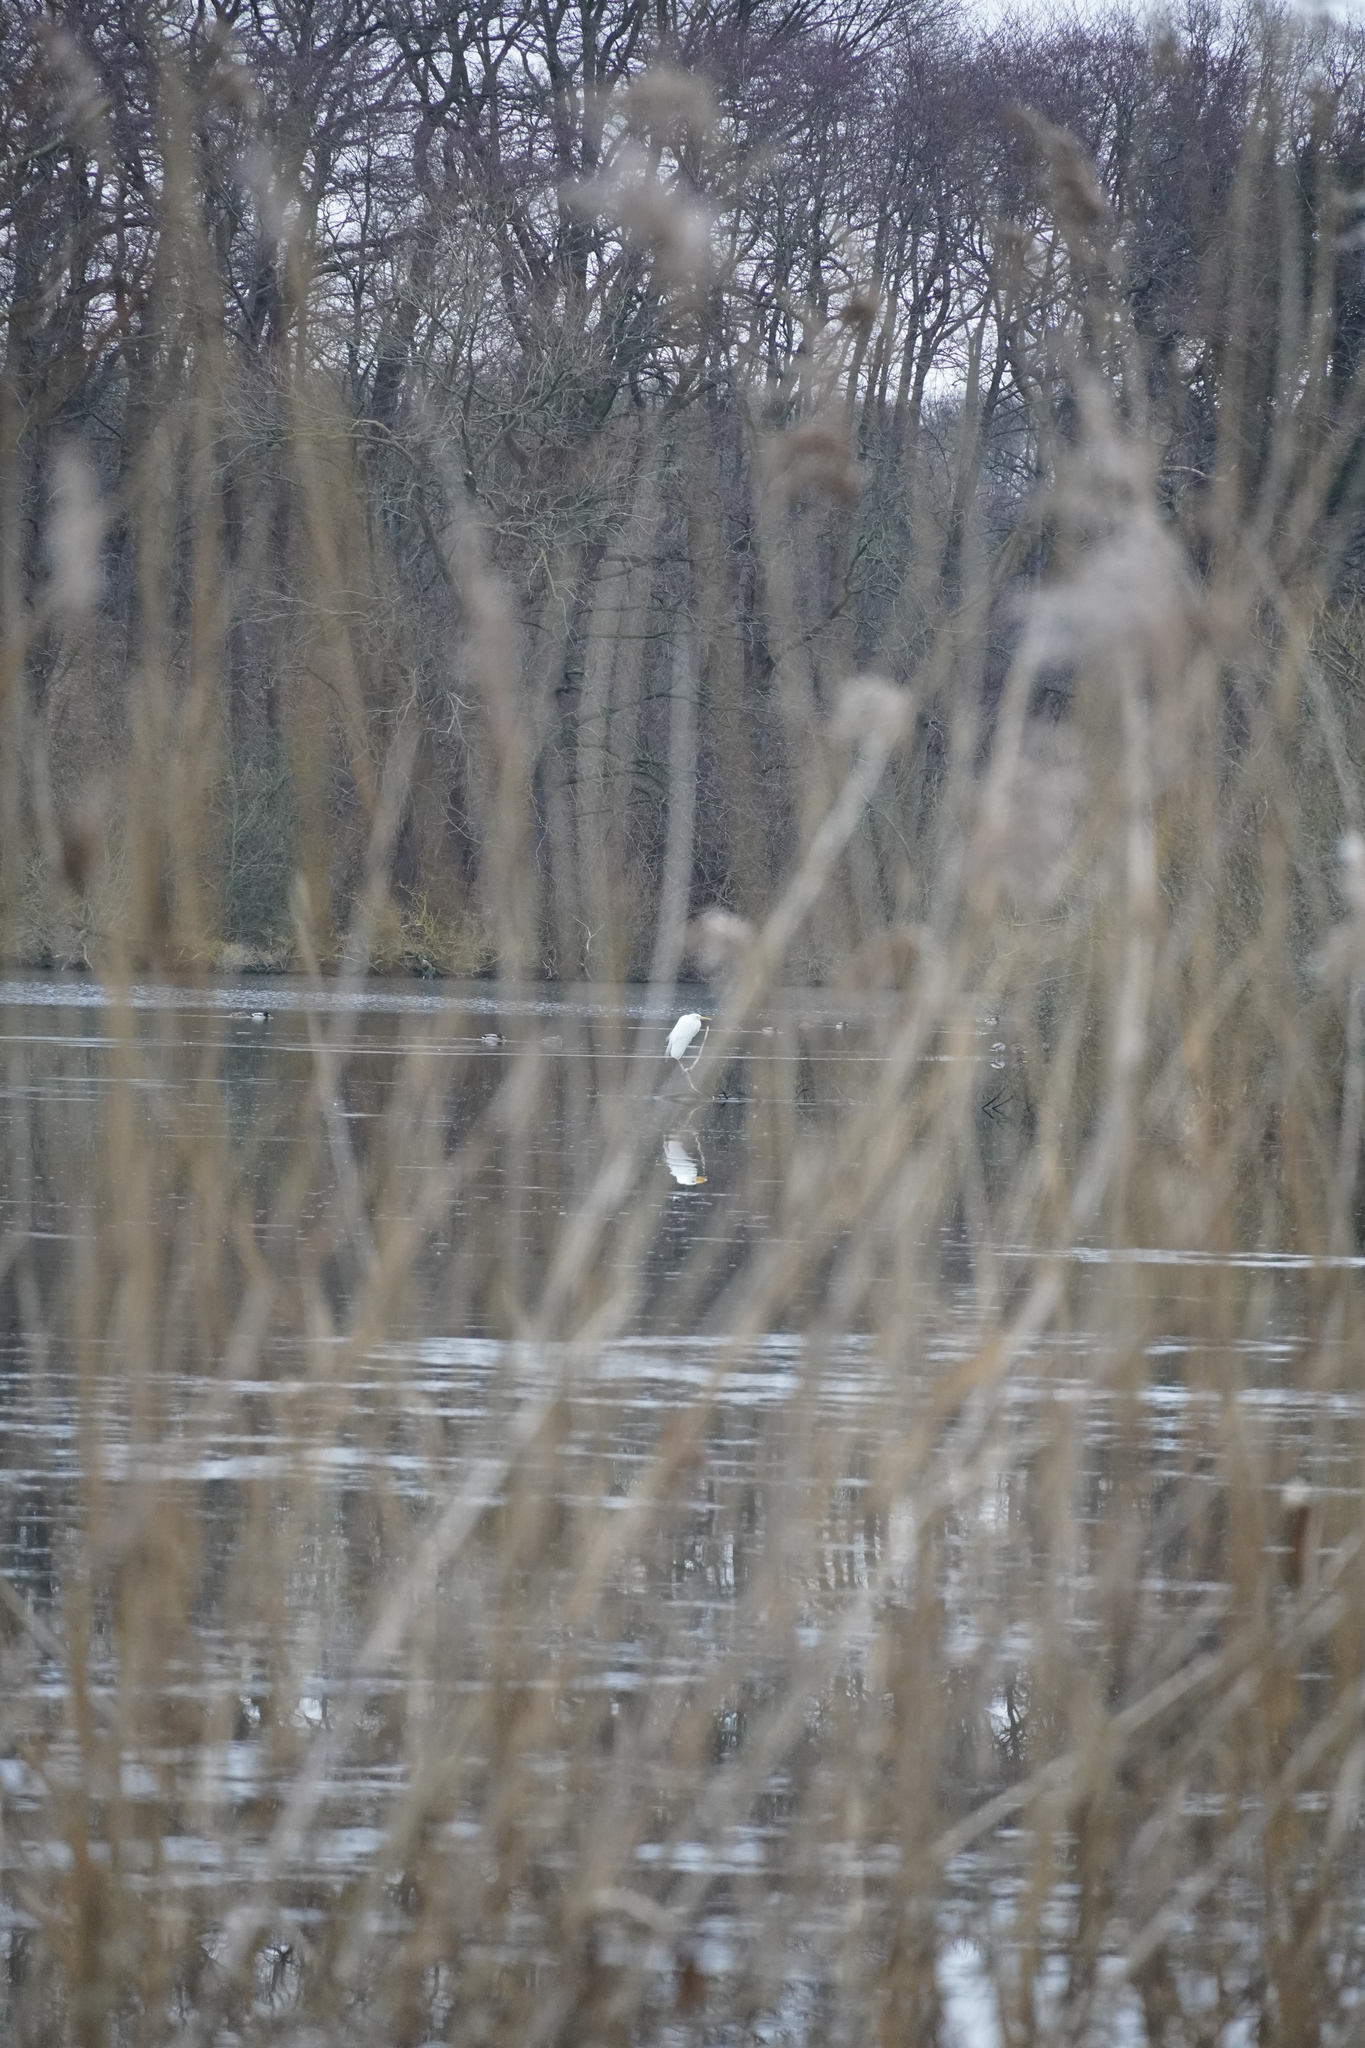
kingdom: Animalia
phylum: Chordata
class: Aves
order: Pelecaniformes
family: Ardeidae
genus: Ardea
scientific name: Ardea alba
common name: Great egret
